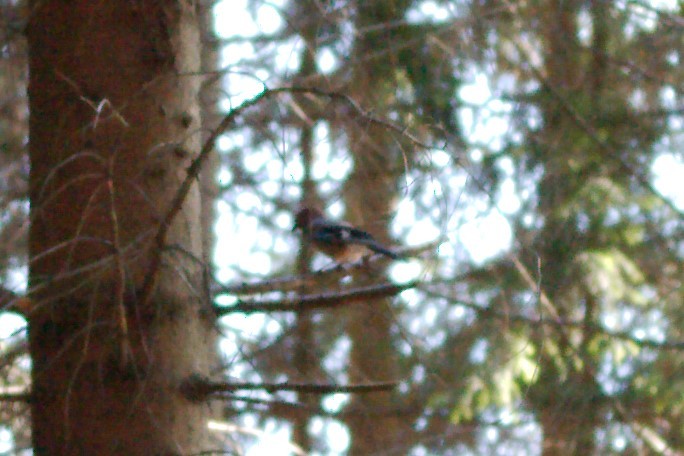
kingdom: Animalia
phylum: Chordata
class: Aves
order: Passeriformes
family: Corvidae
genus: Garrulus
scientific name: Garrulus glandarius
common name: Eurasian jay
